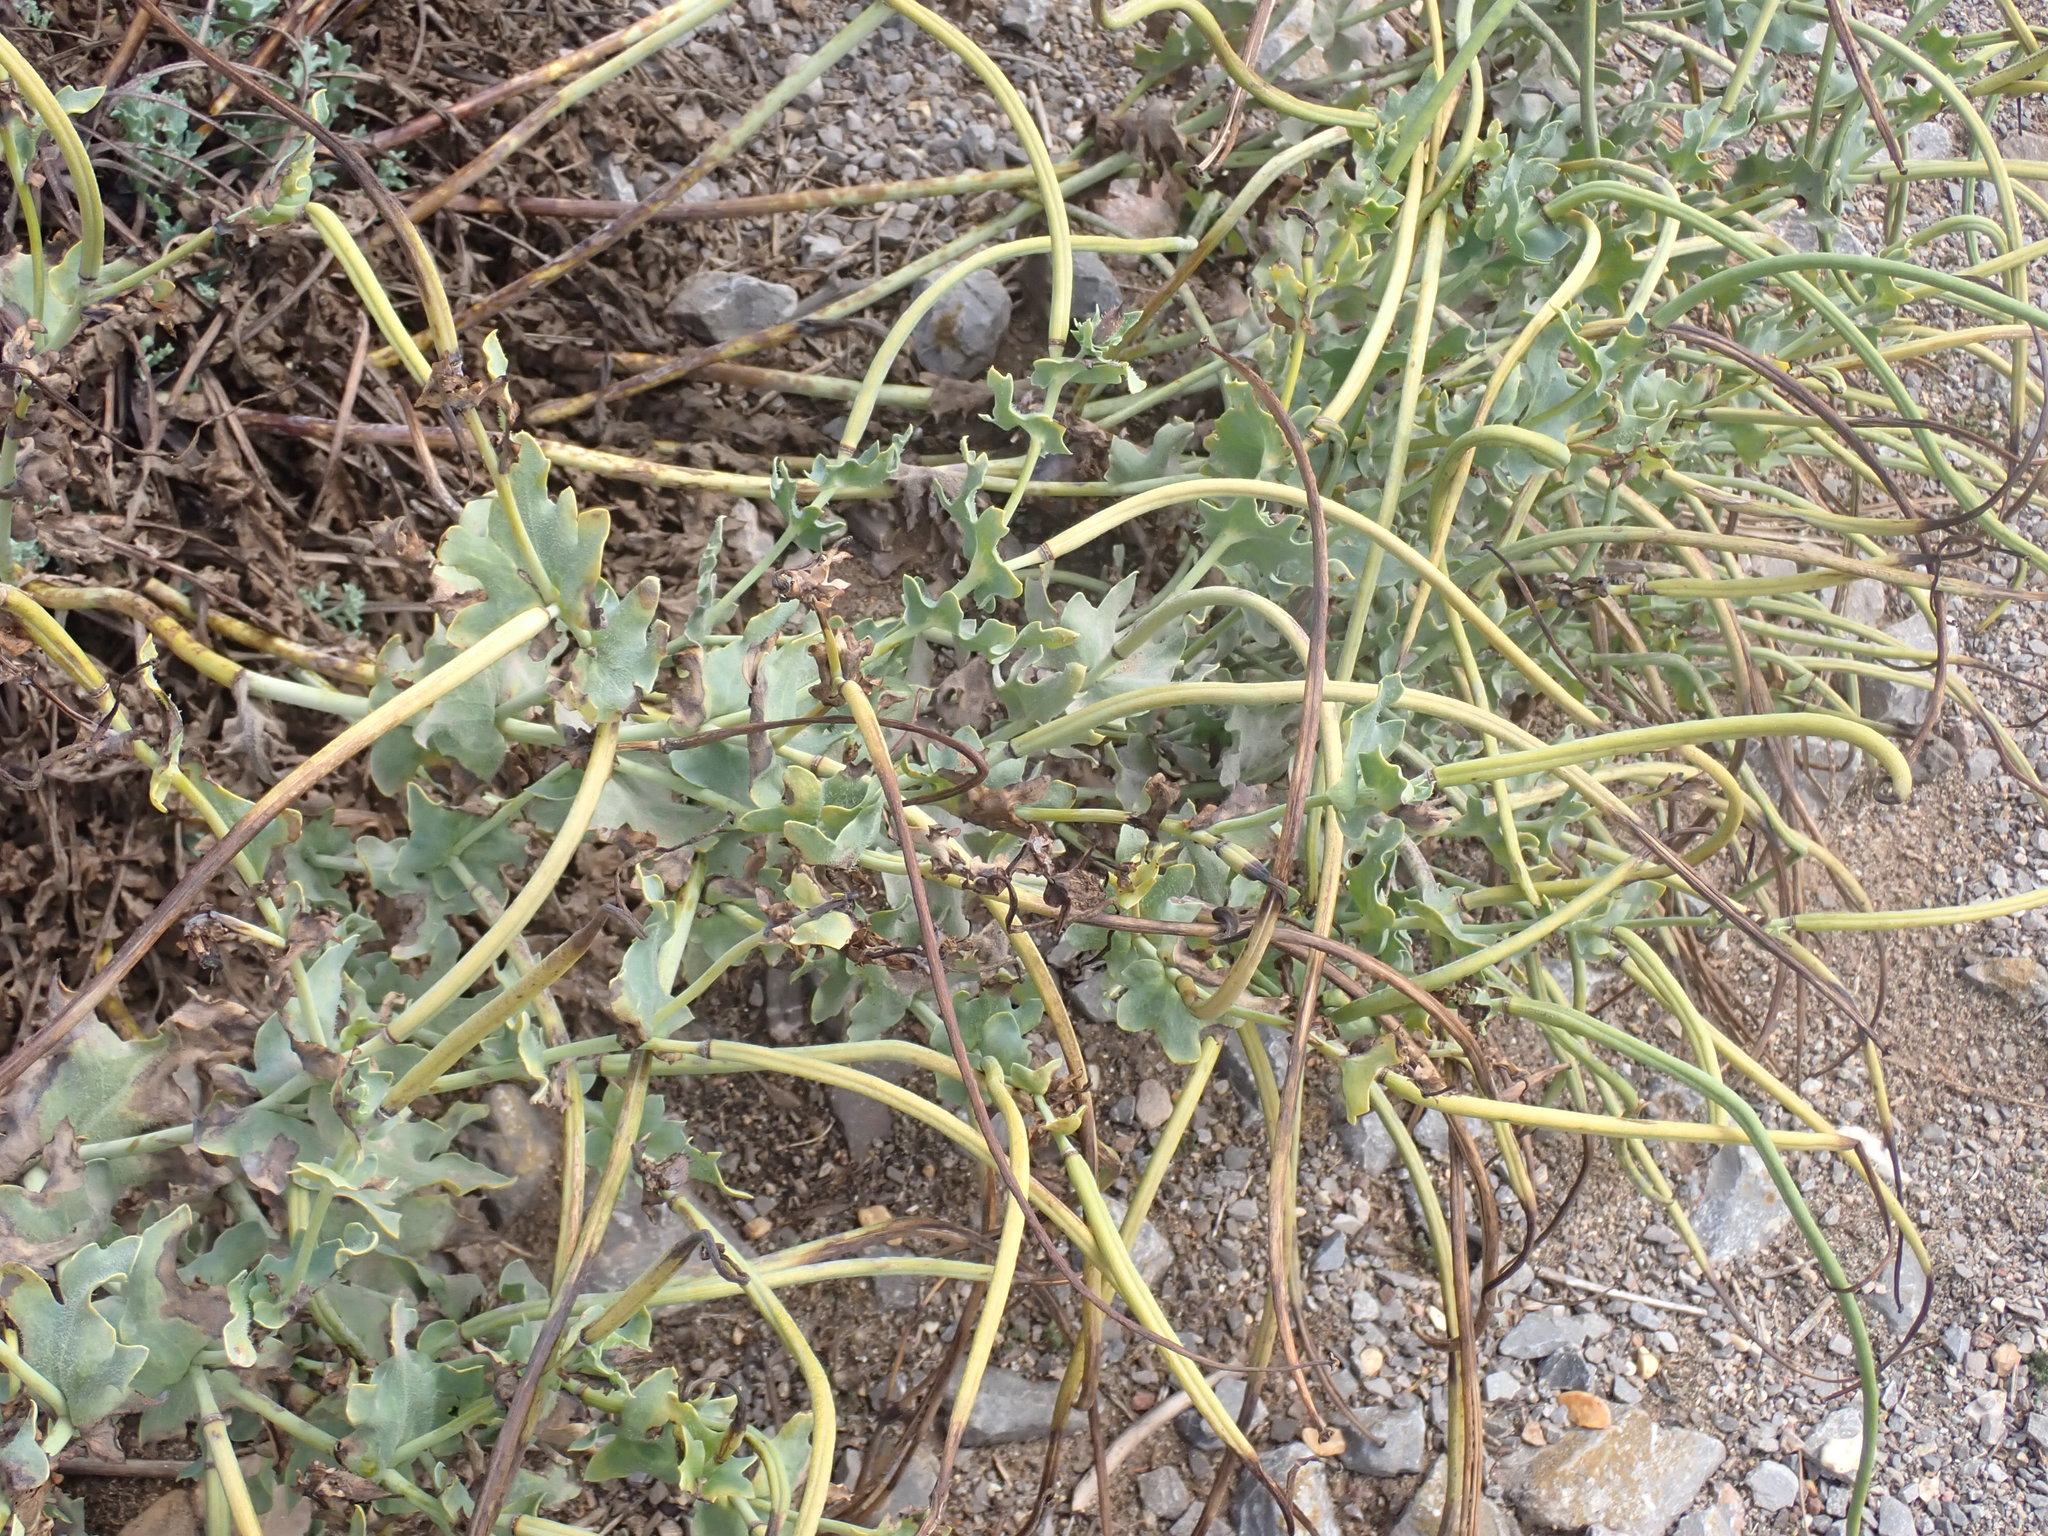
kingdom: Plantae
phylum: Tracheophyta
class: Magnoliopsida
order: Ranunculales
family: Papaveraceae
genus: Glaucium
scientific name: Glaucium flavum
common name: Yellow horned-poppy
